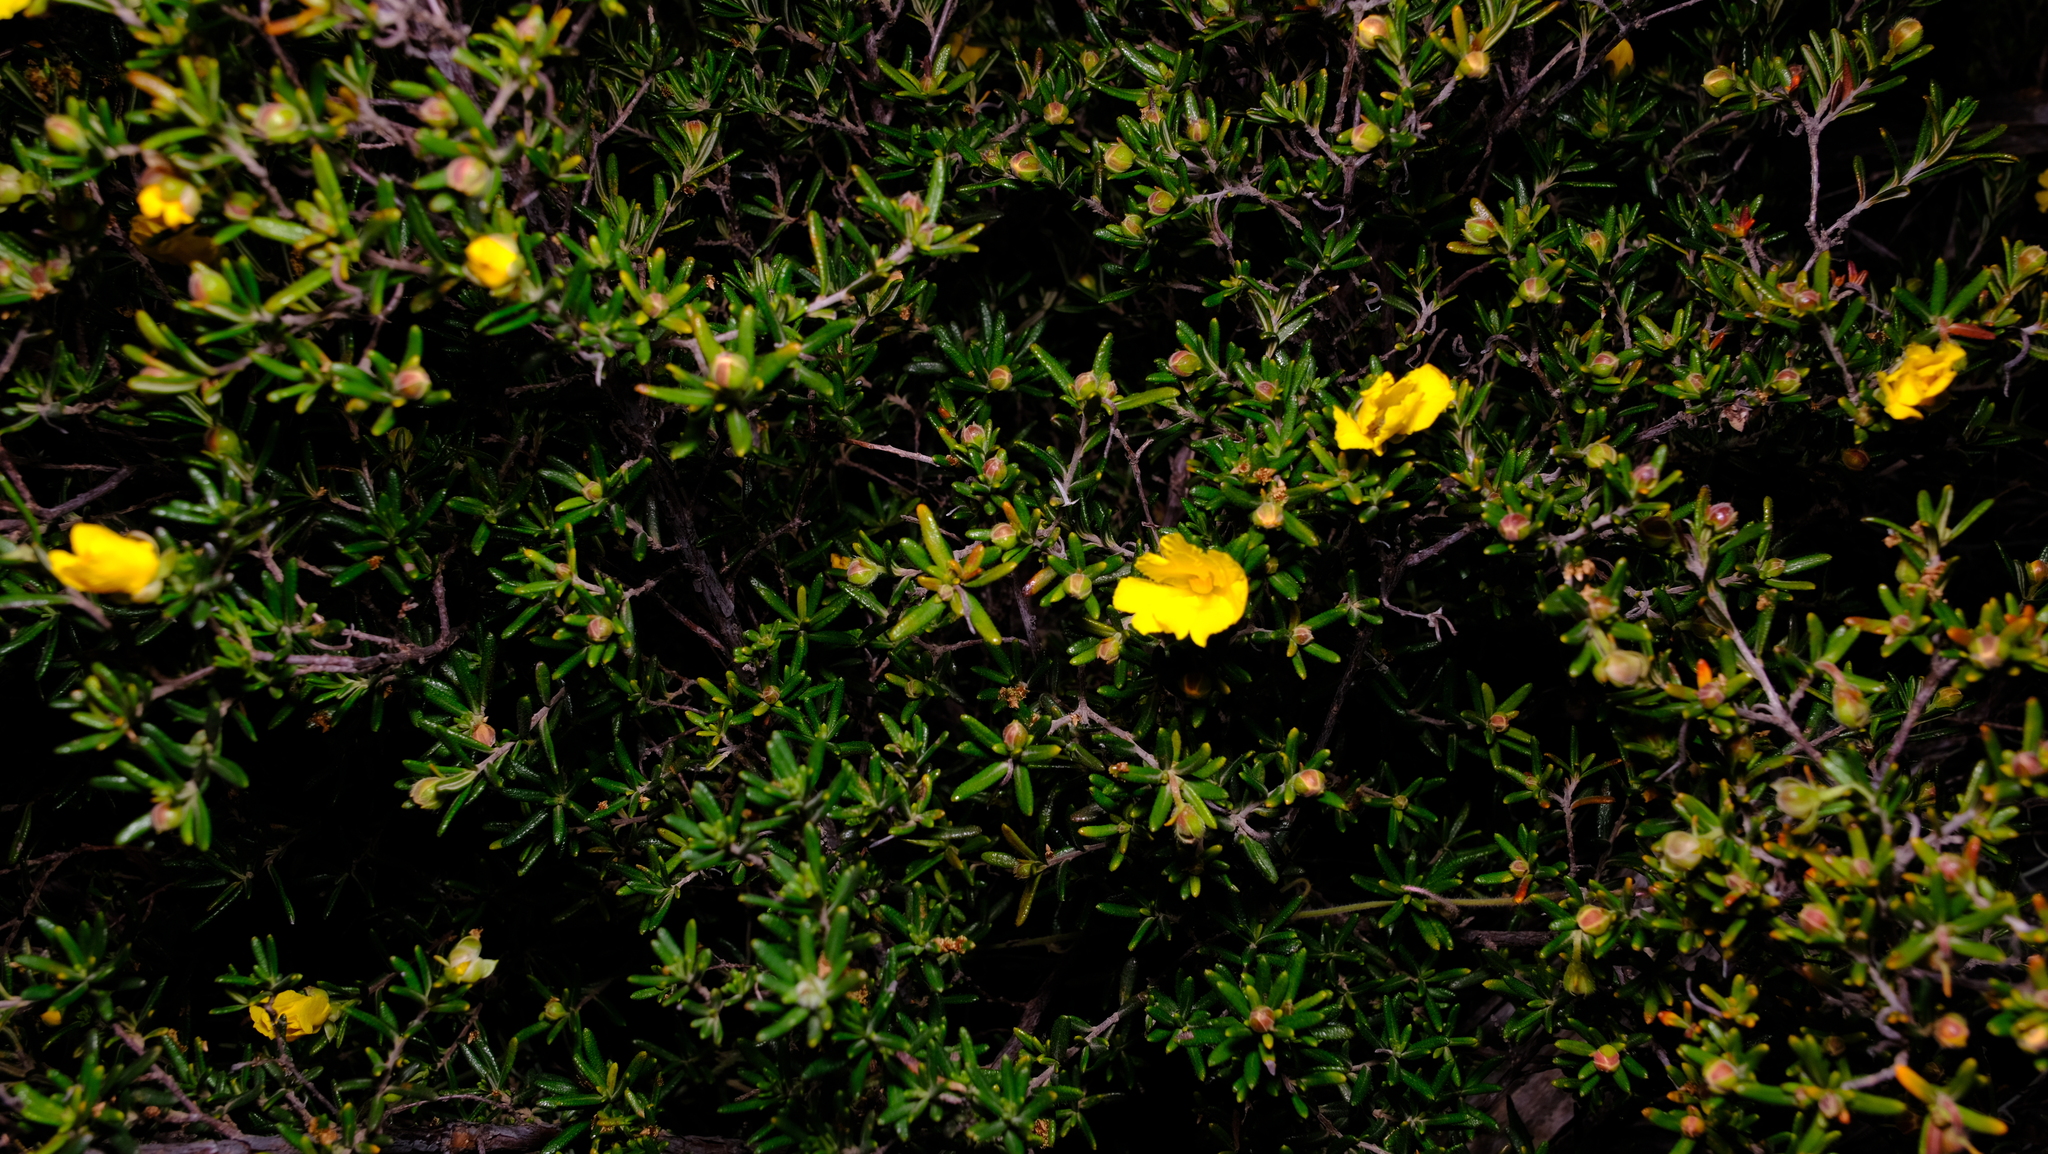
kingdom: Plantae
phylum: Tracheophyta
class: Magnoliopsida
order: Dilleniales
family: Dilleniaceae
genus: Hibbertia
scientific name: Hibbertia hypericoides
